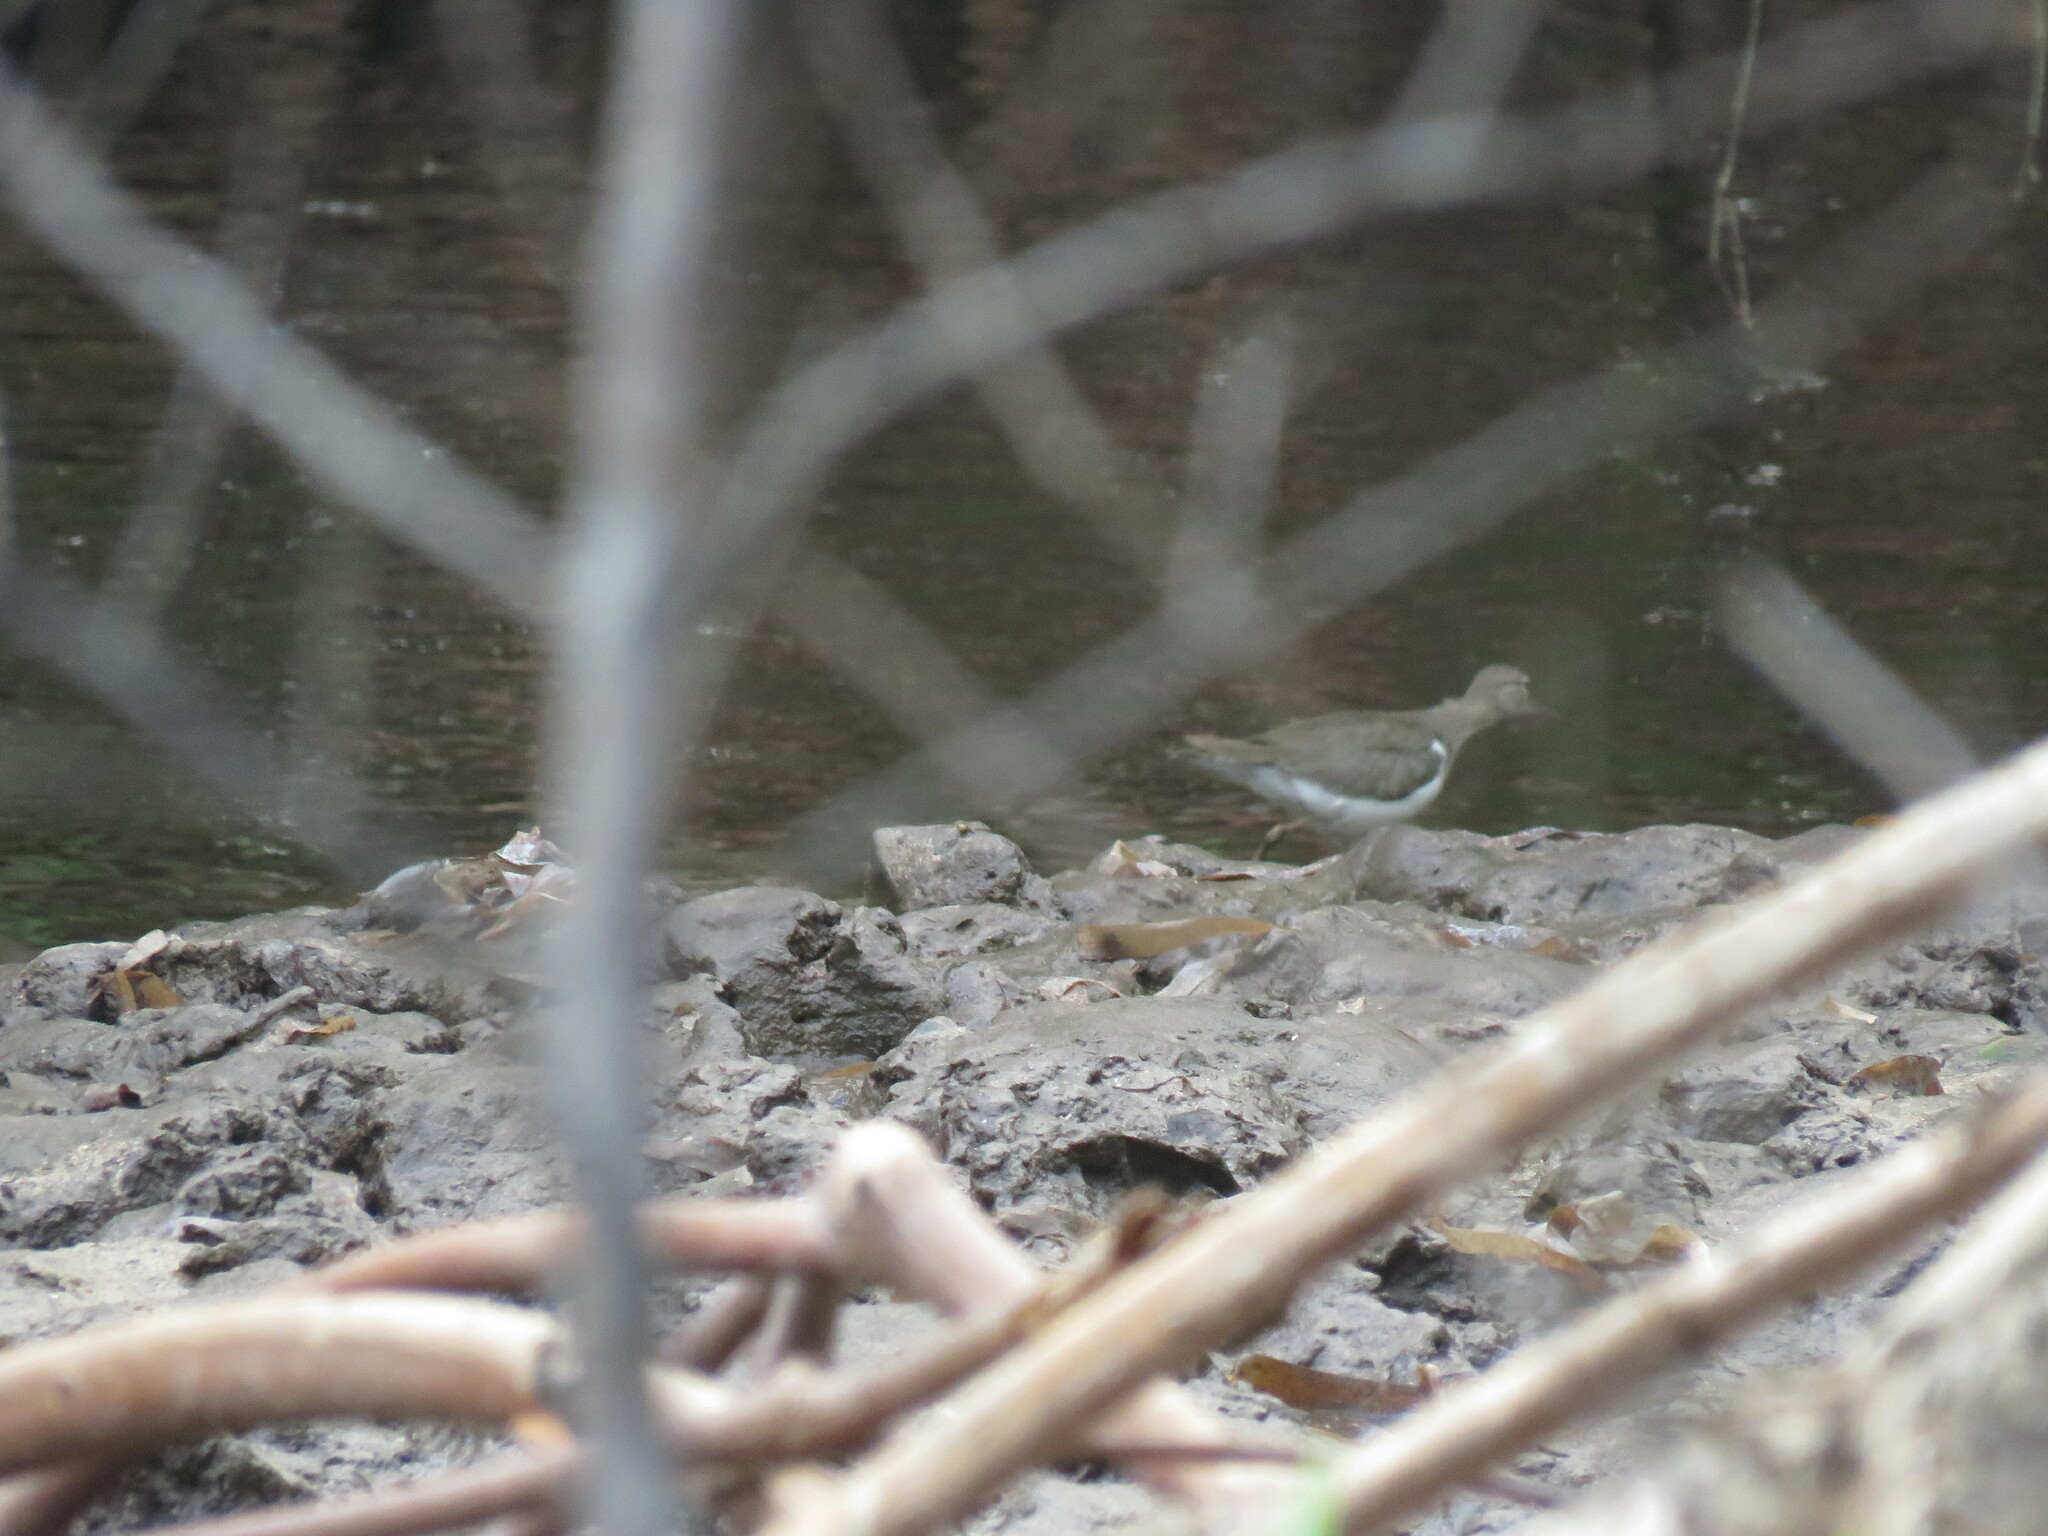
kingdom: Animalia
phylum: Chordata
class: Aves
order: Charadriiformes
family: Scolopacidae
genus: Actitis
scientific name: Actitis macularius
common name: Spotted sandpiper
